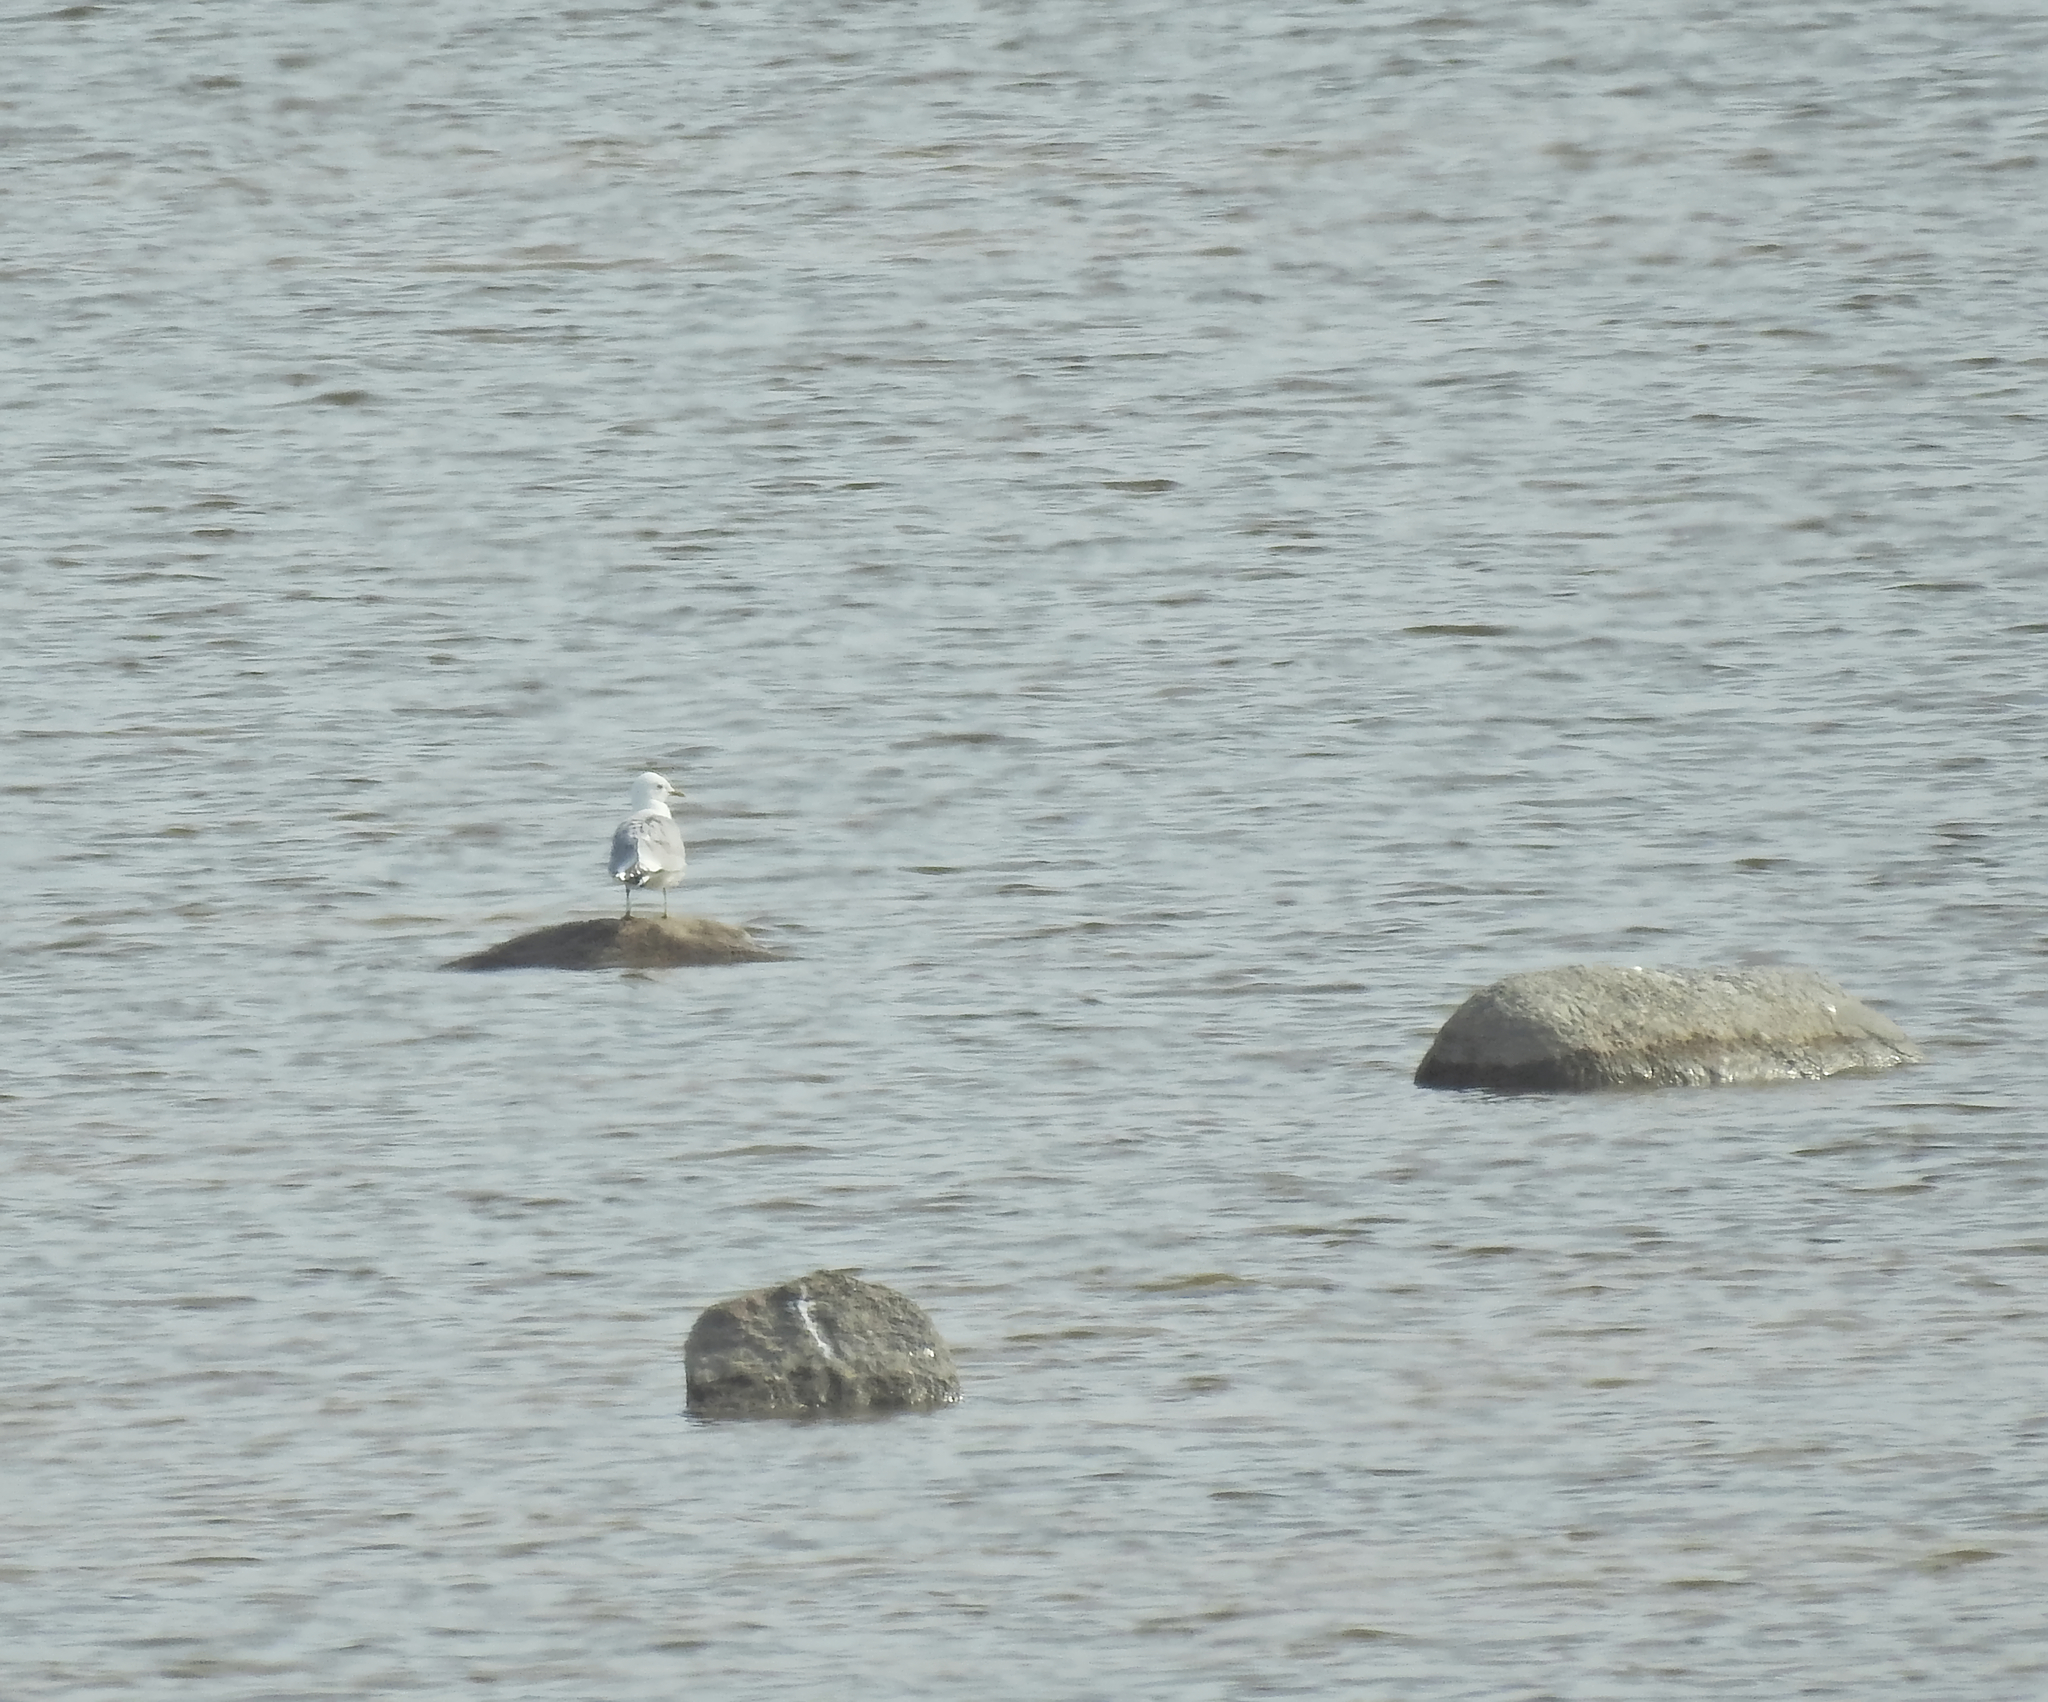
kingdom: Animalia
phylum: Chordata
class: Aves
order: Charadriiformes
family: Laridae
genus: Larus
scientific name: Larus canus
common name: Mew gull
